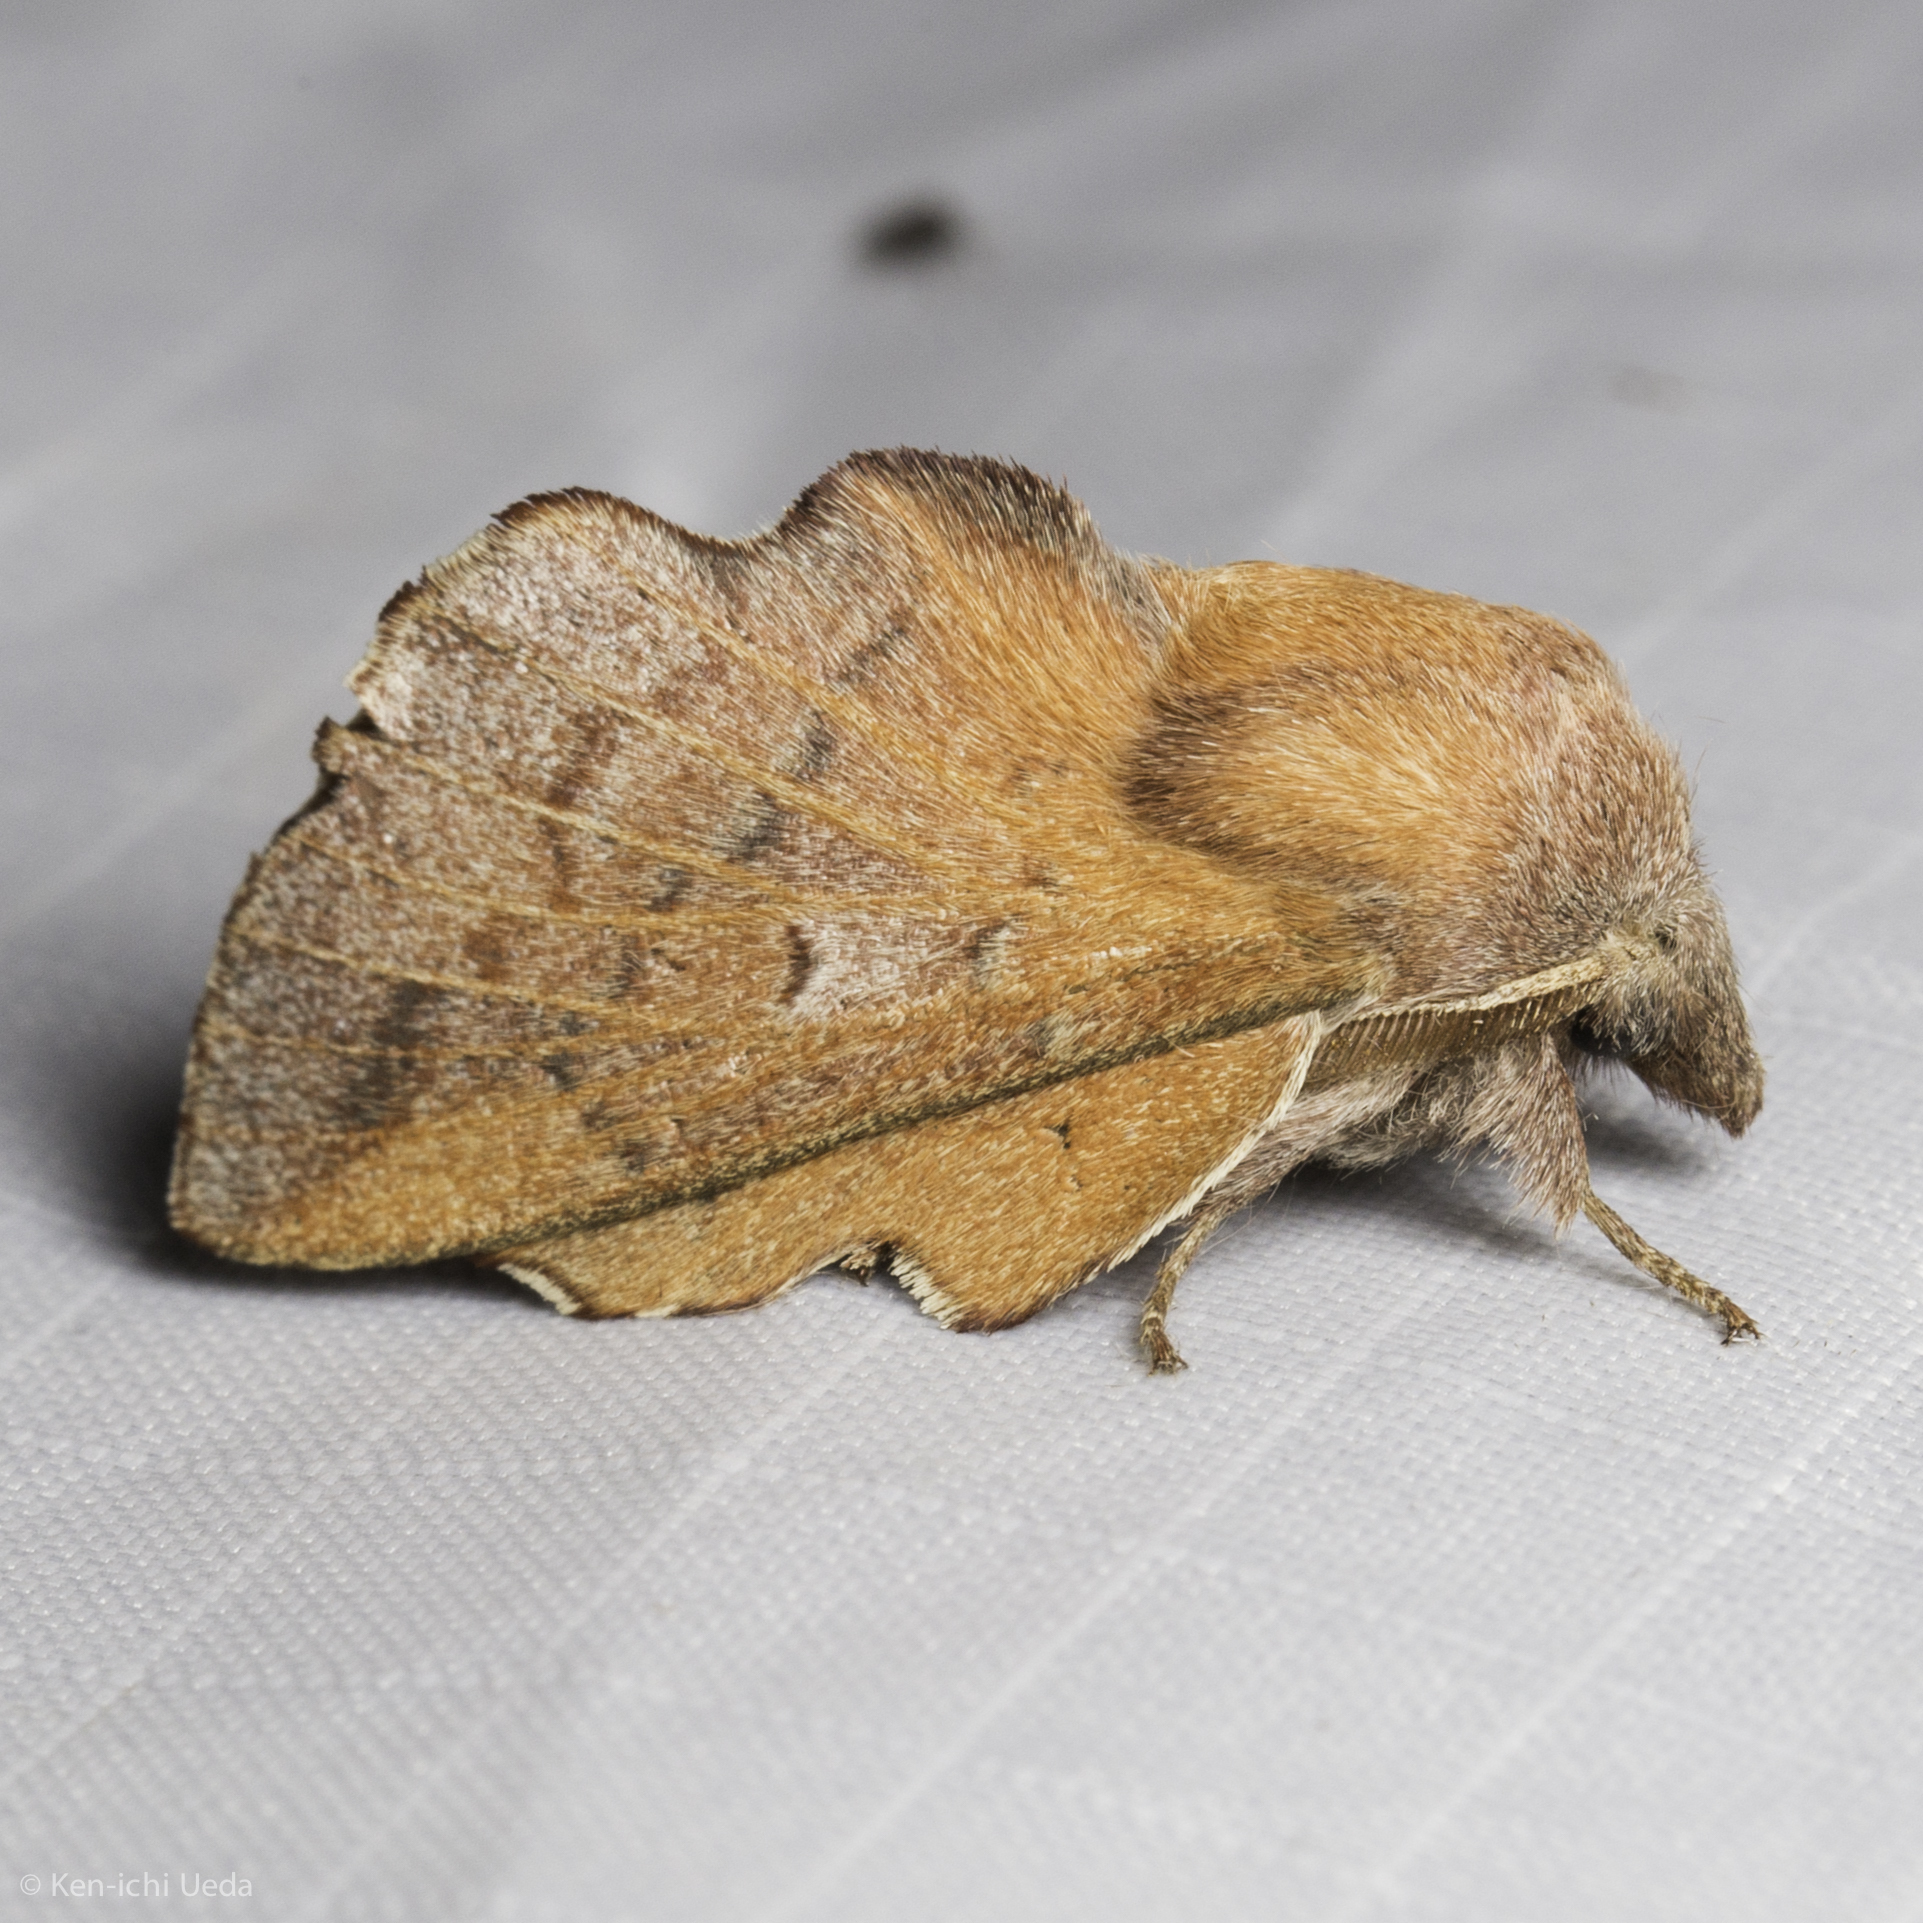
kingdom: Animalia
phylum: Arthropoda
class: Insecta
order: Lepidoptera
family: Lasiocampidae
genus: Phyllodesma
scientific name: Phyllodesma americana
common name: American lappet moth
